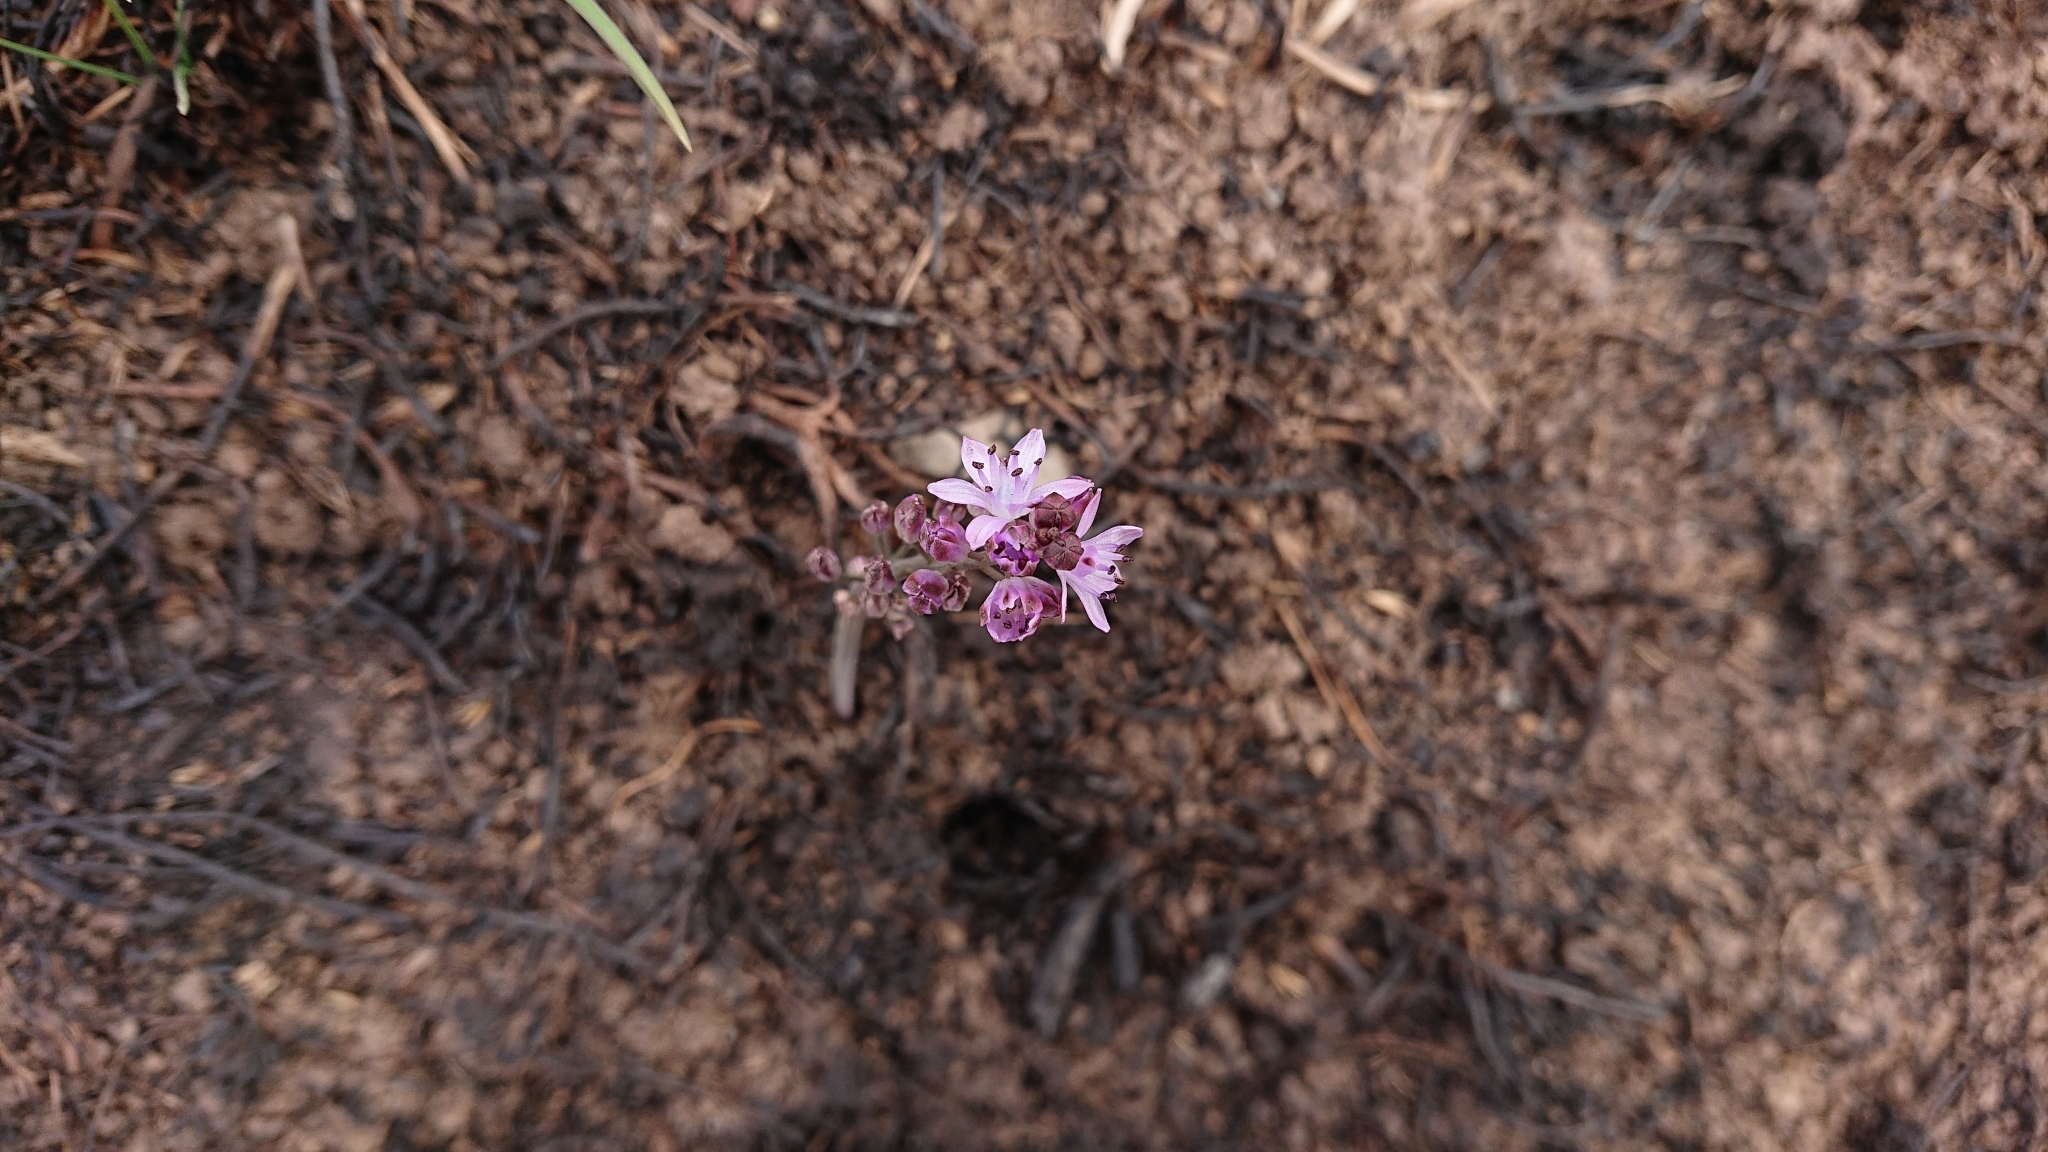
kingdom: Plantae
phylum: Tracheophyta
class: Liliopsida
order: Asparagales
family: Asparagaceae
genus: Prospero
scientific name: Prospero autumnale
